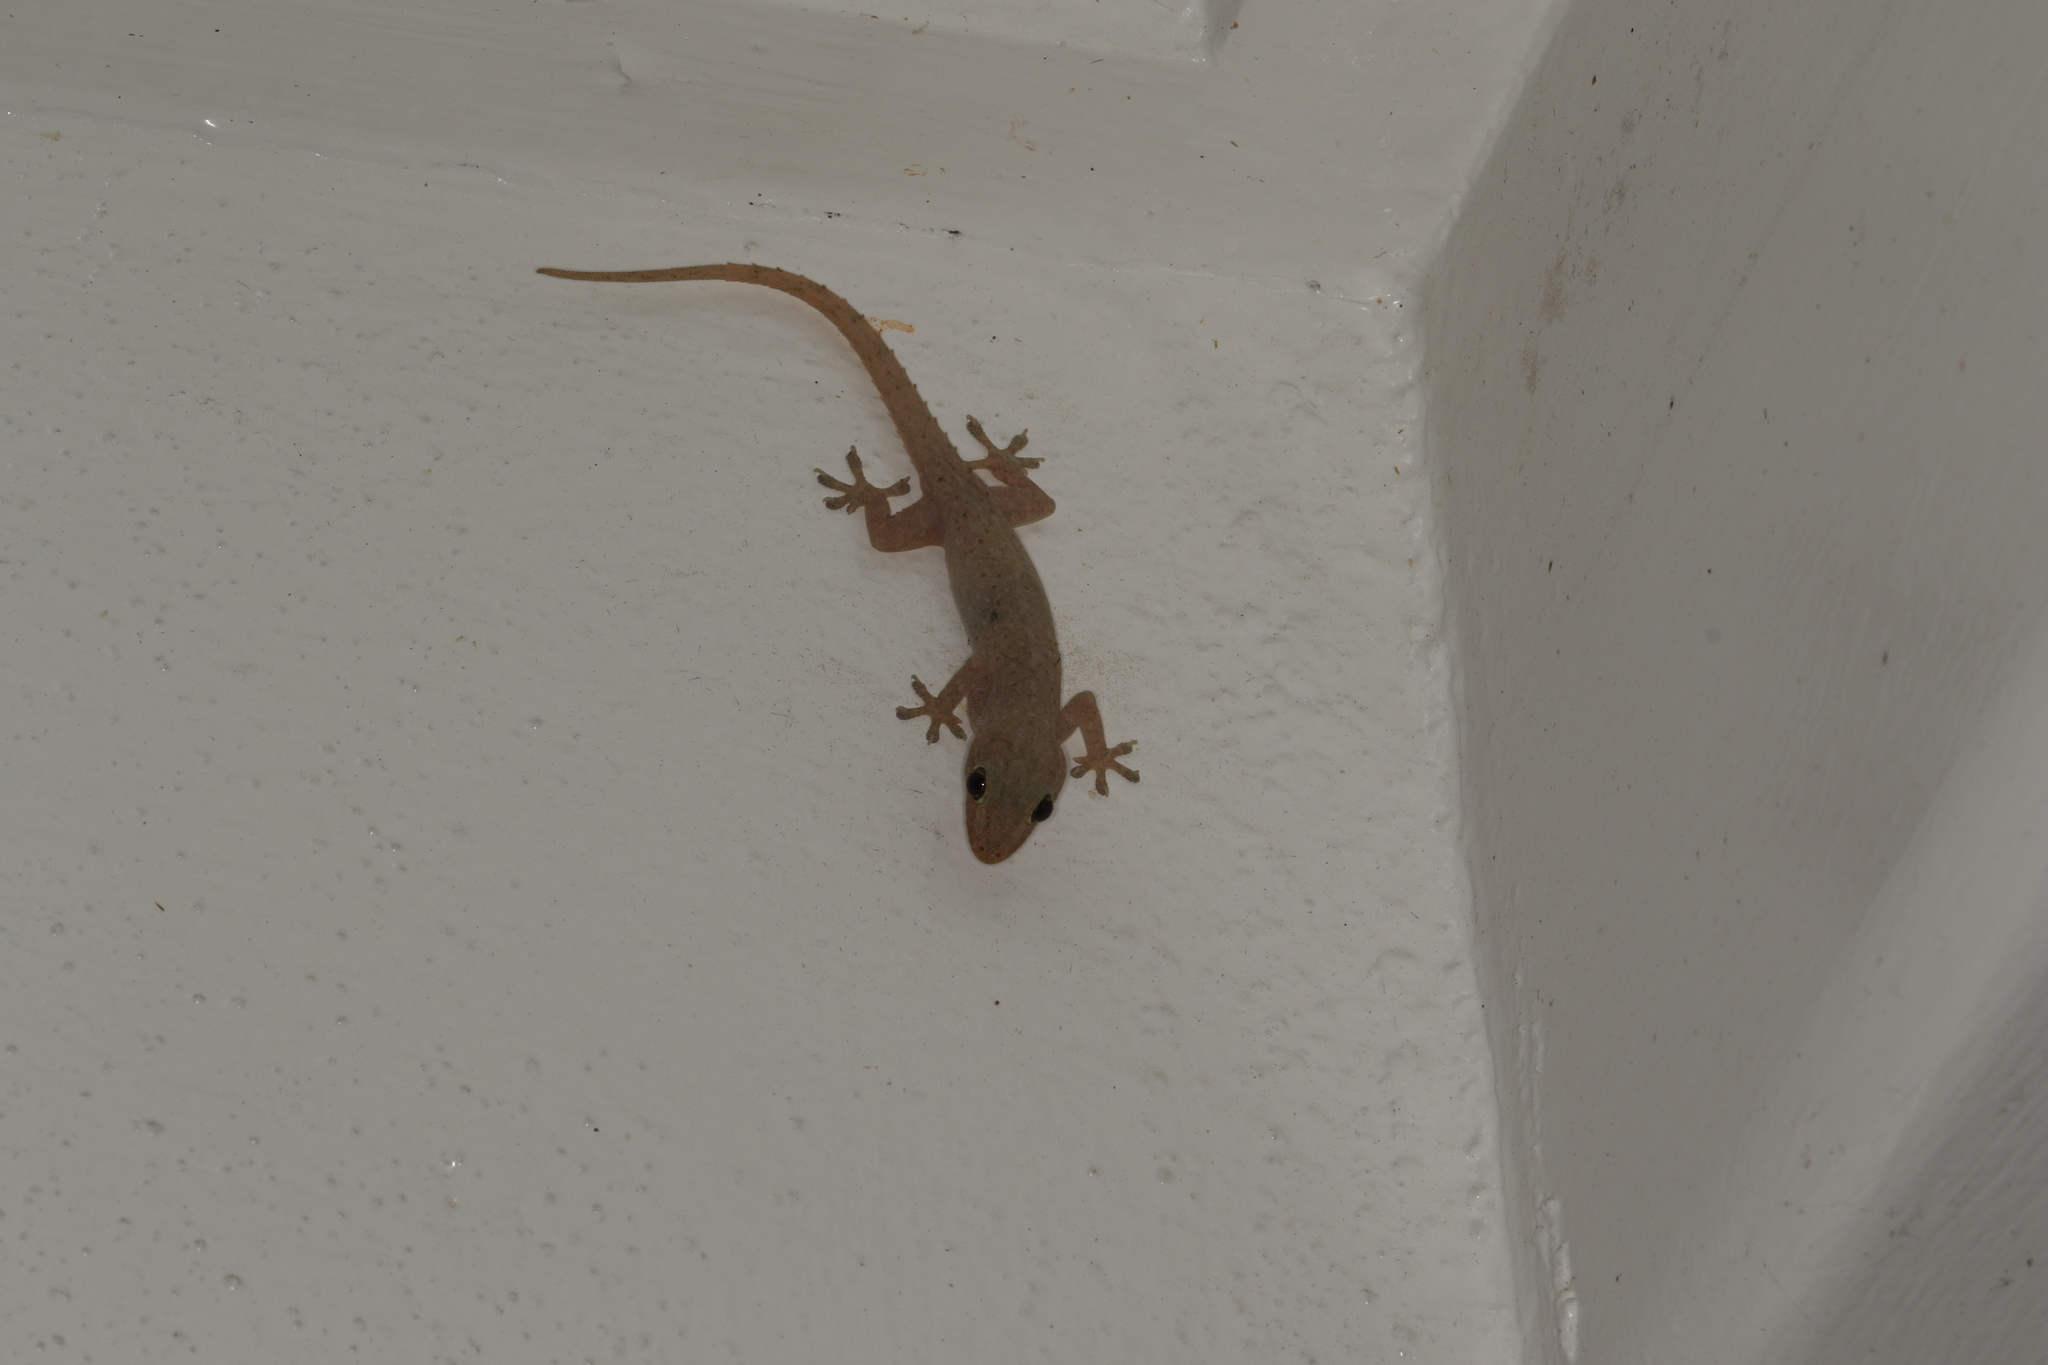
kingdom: Animalia
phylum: Chordata
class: Squamata
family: Gekkonidae
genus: Hemidactylus
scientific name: Hemidactylus frenatus
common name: Common house gecko
